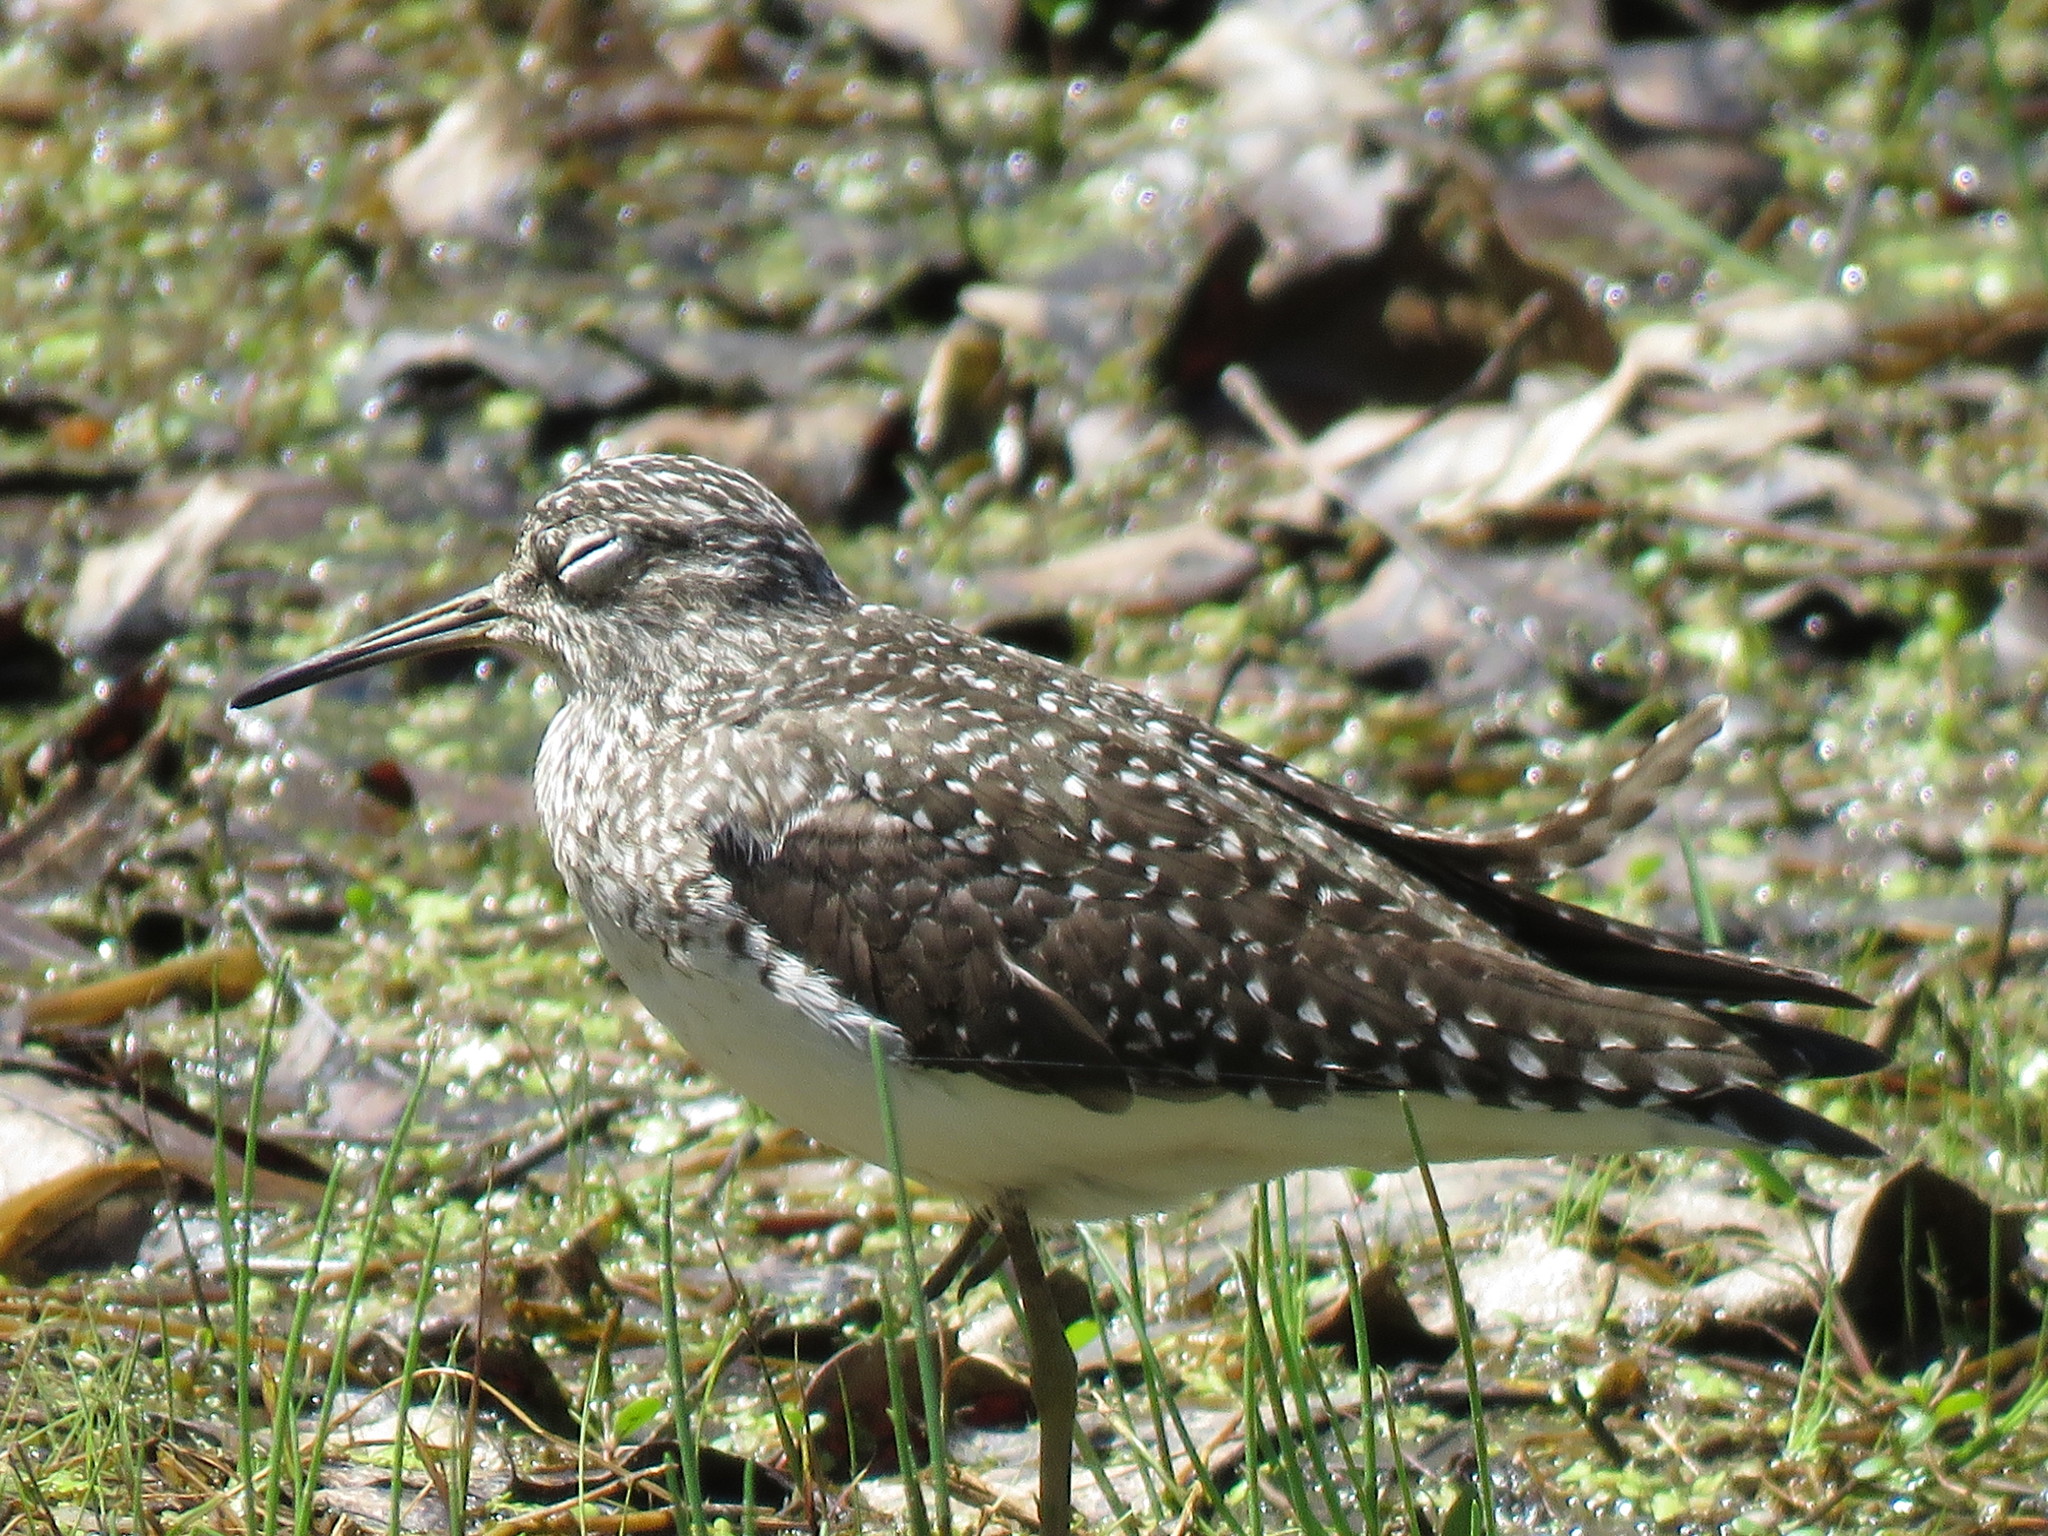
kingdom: Animalia
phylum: Chordata
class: Aves
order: Charadriiformes
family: Scolopacidae
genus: Tringa
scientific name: Tringa solitaria
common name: Solitary sandpiper
